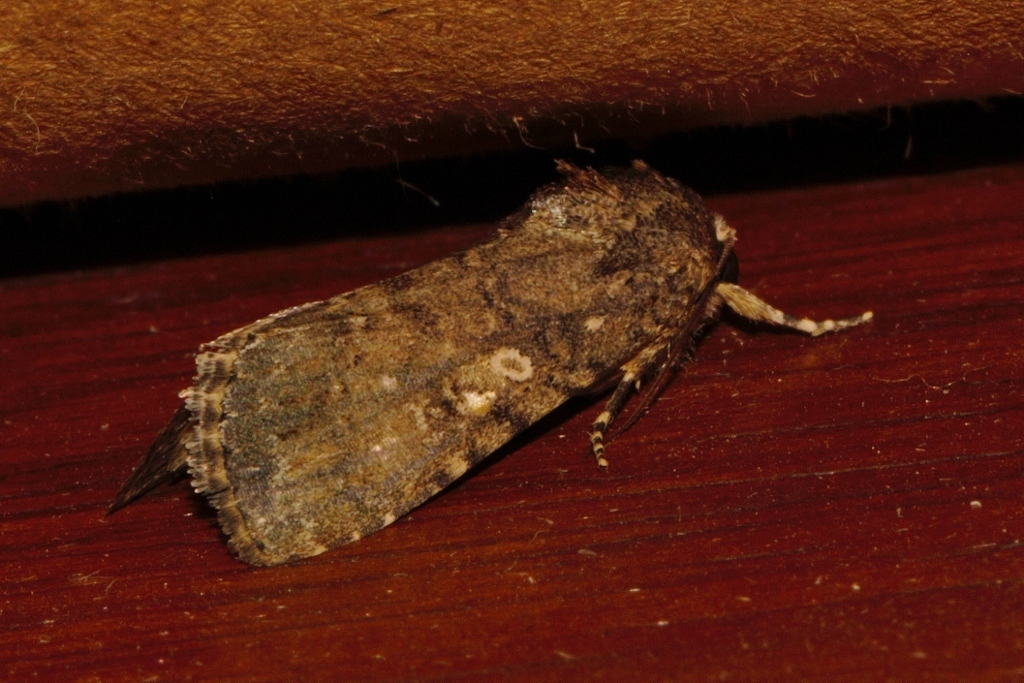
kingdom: Animalia
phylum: Arthropoda
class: Insecta
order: Lepidoptera
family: Noctuidae
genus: Spodoptera
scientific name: Spodoptera cilium
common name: Dark mottled willow
